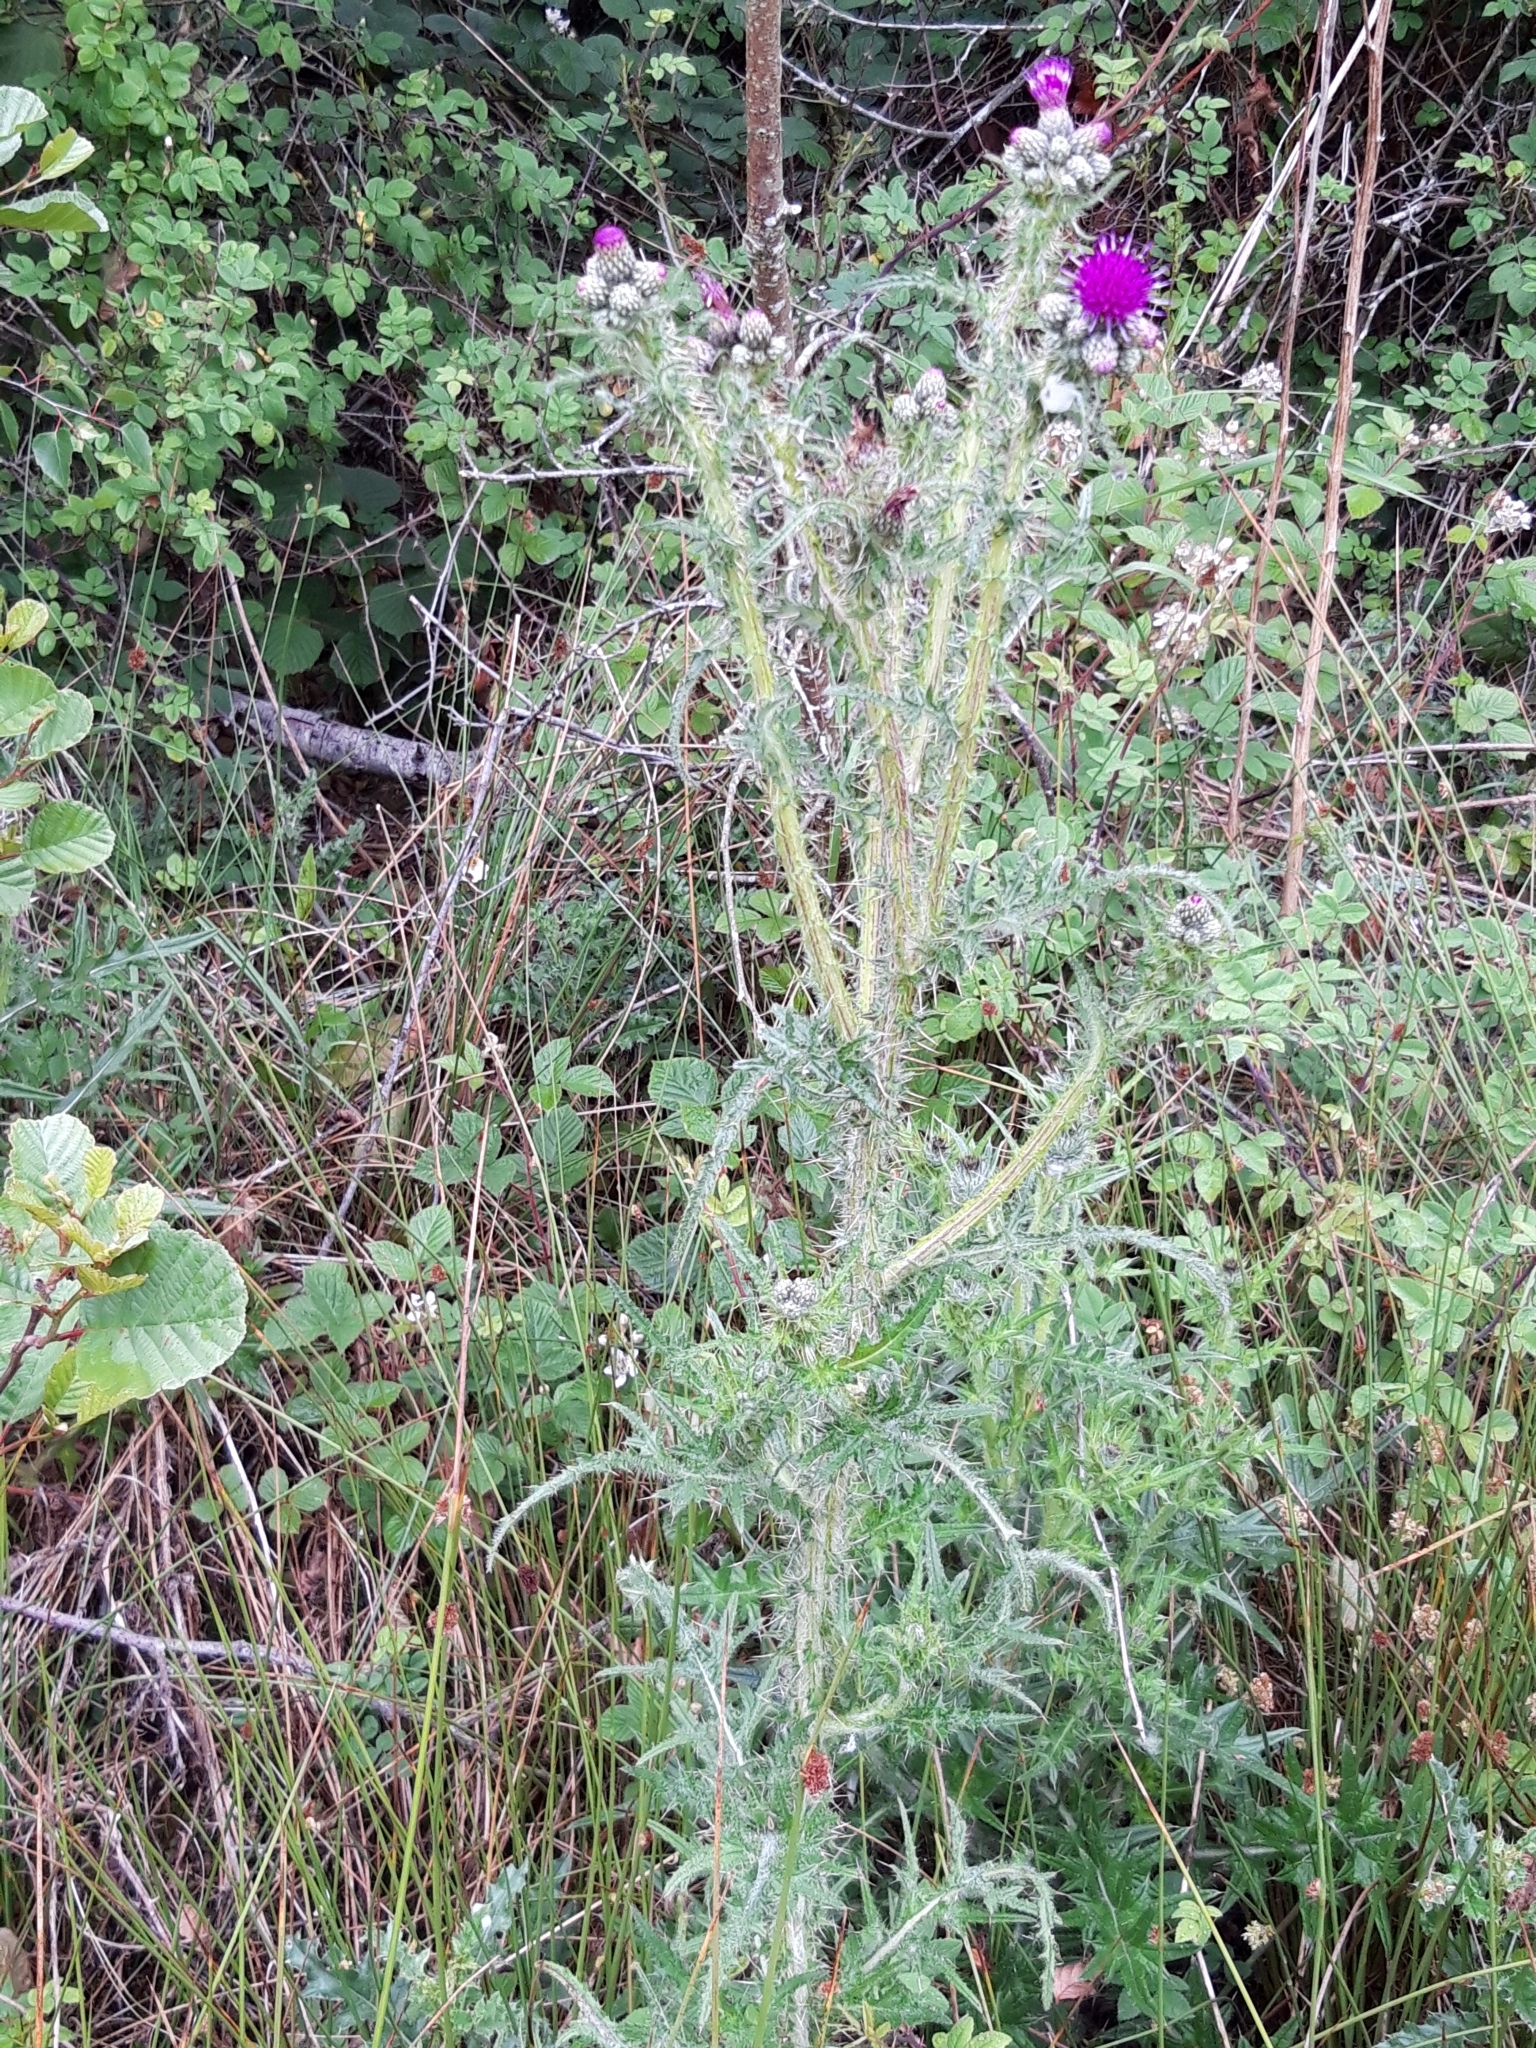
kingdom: Plantae
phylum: Tracheophyta
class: Magnoliopsida
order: Asterales
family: Asteraceae
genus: Cirsium
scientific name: Cirsium palustre
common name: Marsh thistle
